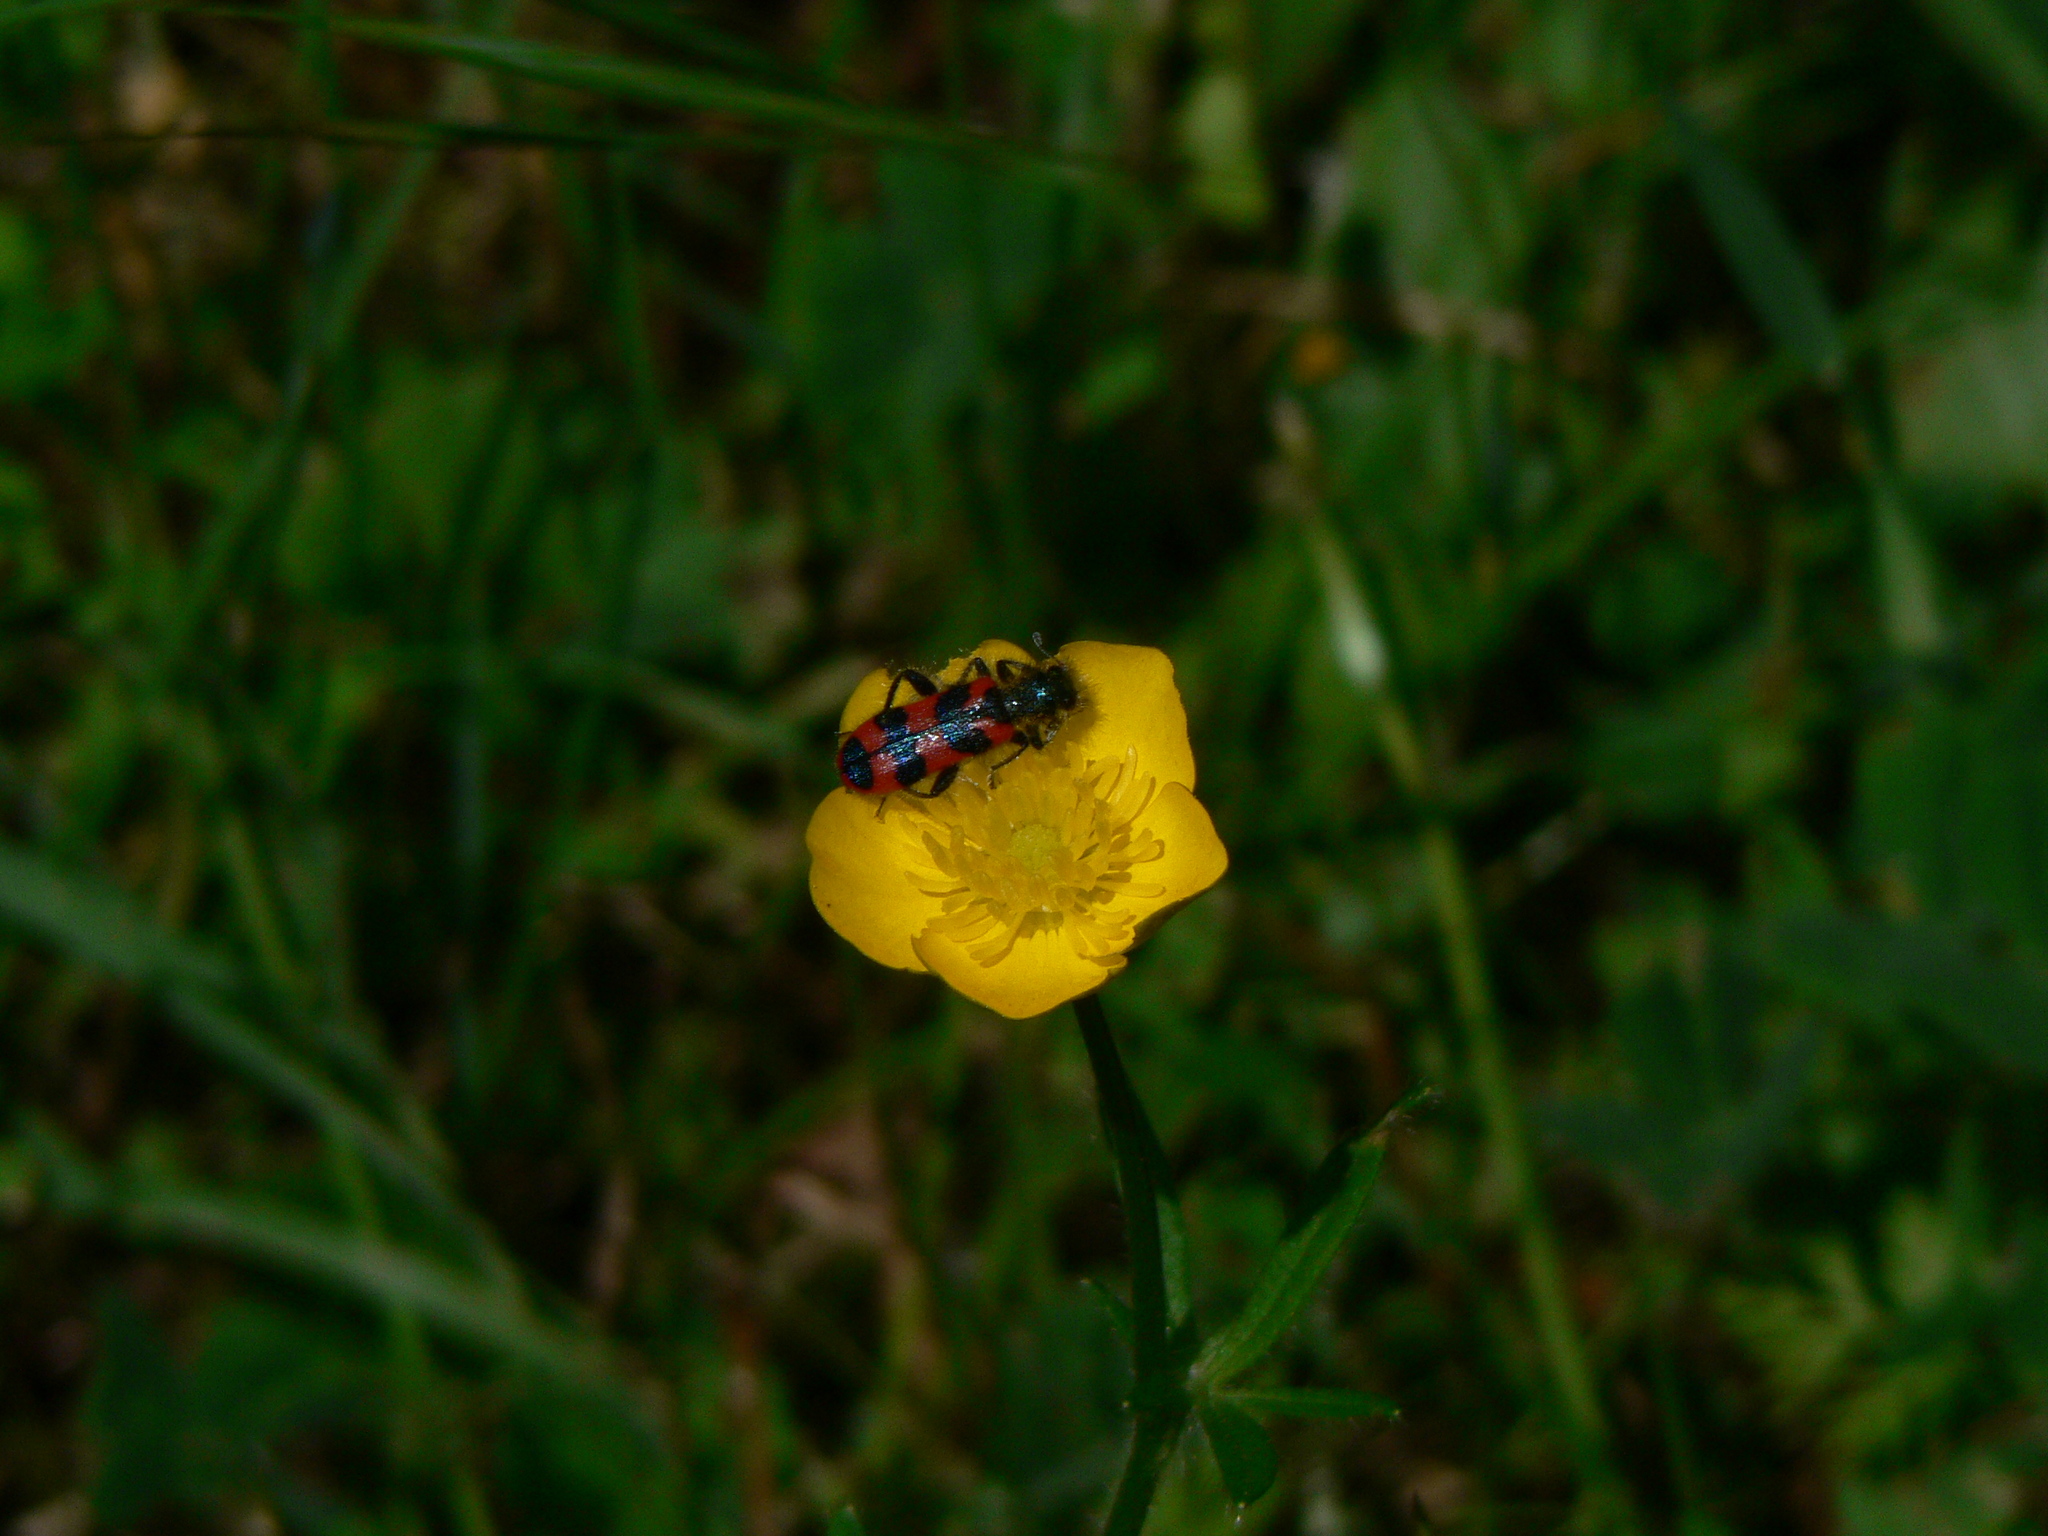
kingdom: Animalia
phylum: Arthropoda
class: Insecta
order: Coleoptera
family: Cleridae
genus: Trichodes
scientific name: Trichodes alvearius
